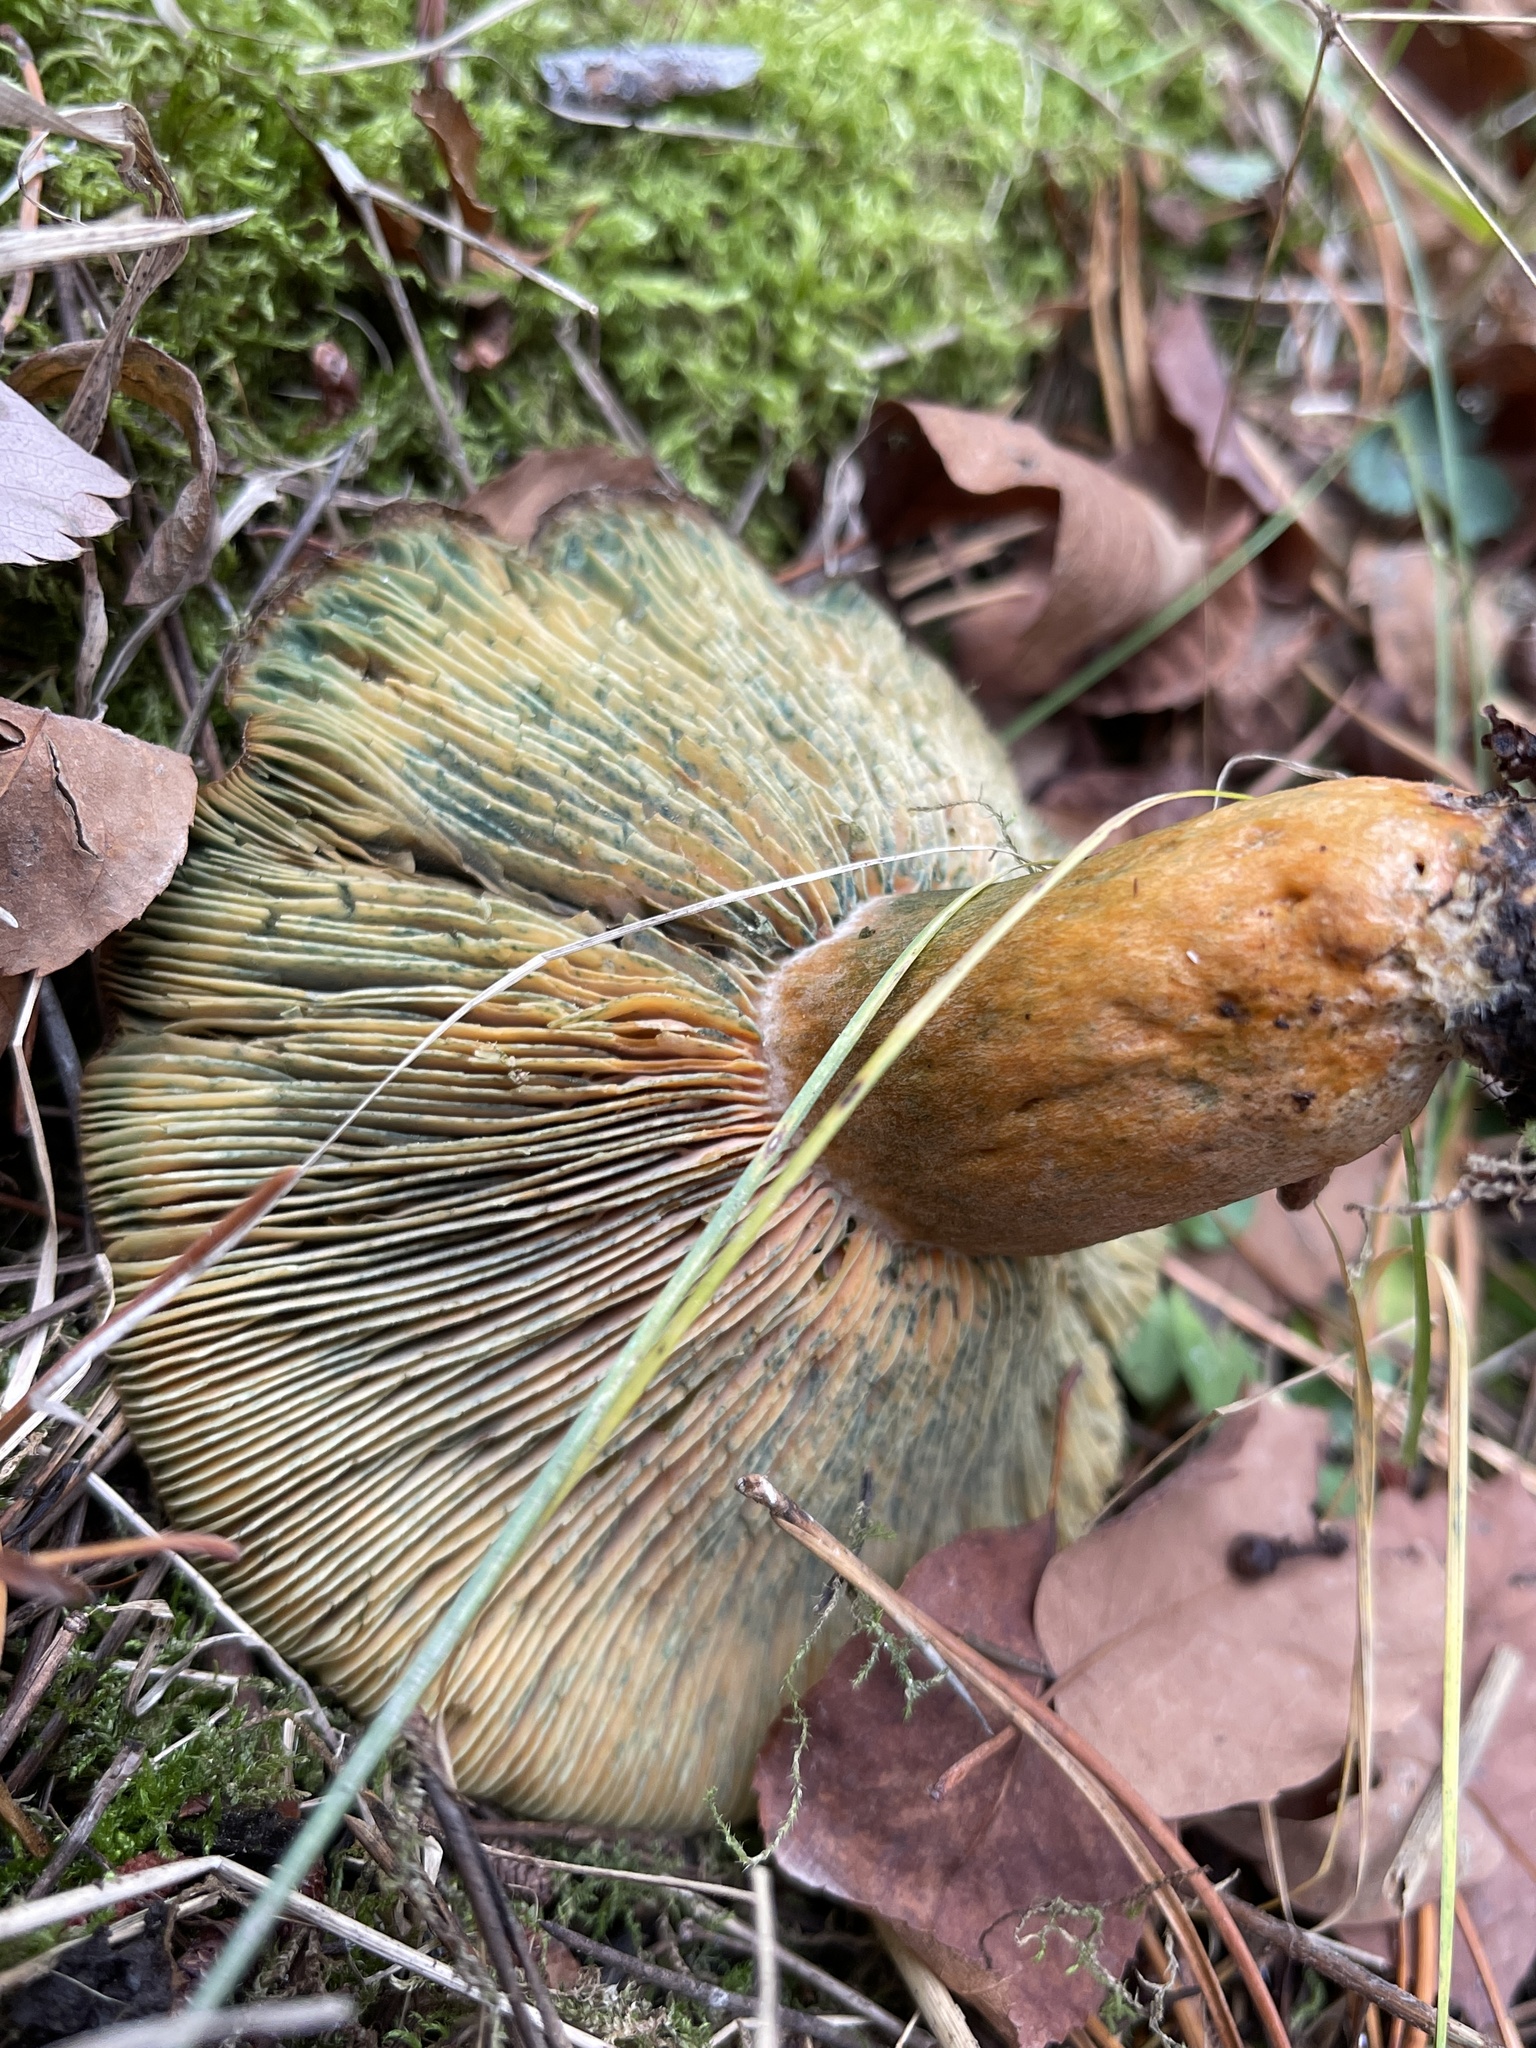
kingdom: Fungi
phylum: Basidiomycota
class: Agaricomycetes
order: Russulales
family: Russulaceae
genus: Lactarius
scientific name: Lactarius deliciosus
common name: Saffron milk-cap
